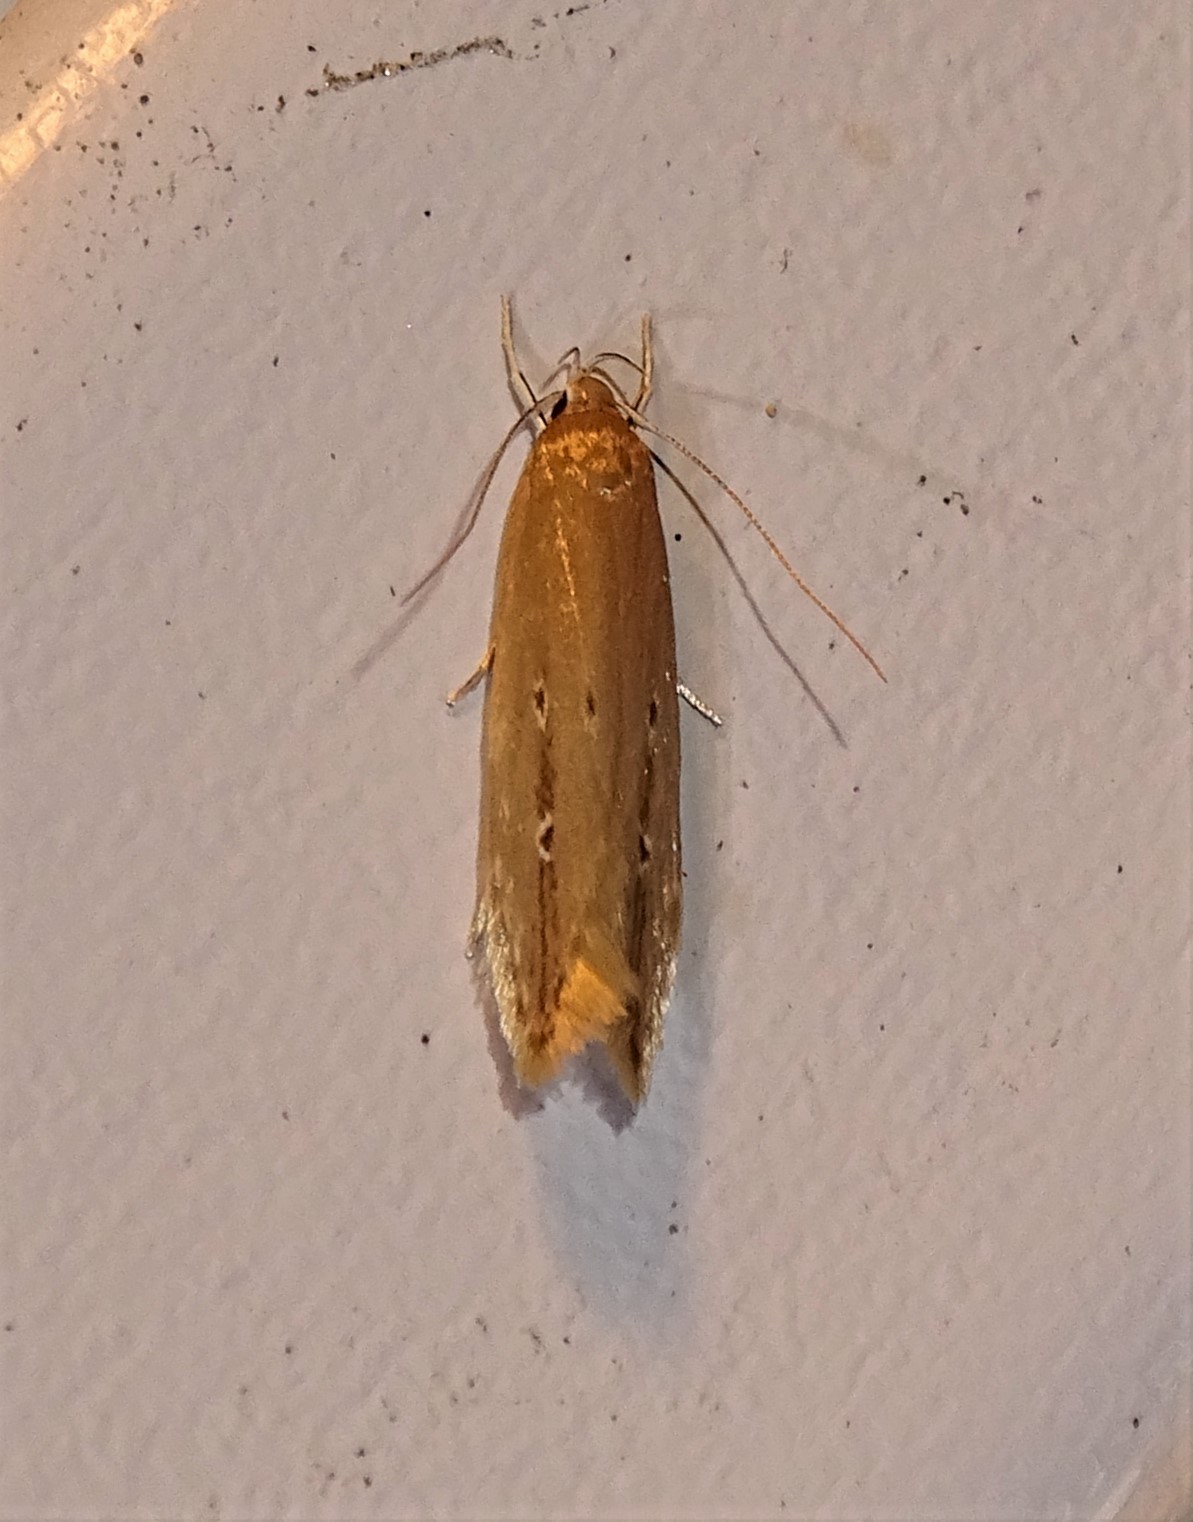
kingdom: Animalia
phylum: Arthropoda
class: Insecta
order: Lepidoptera
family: Cosmopterigidae
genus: Limnaecia
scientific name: Limnaecia phragmitella
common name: Bulrush cosmet
